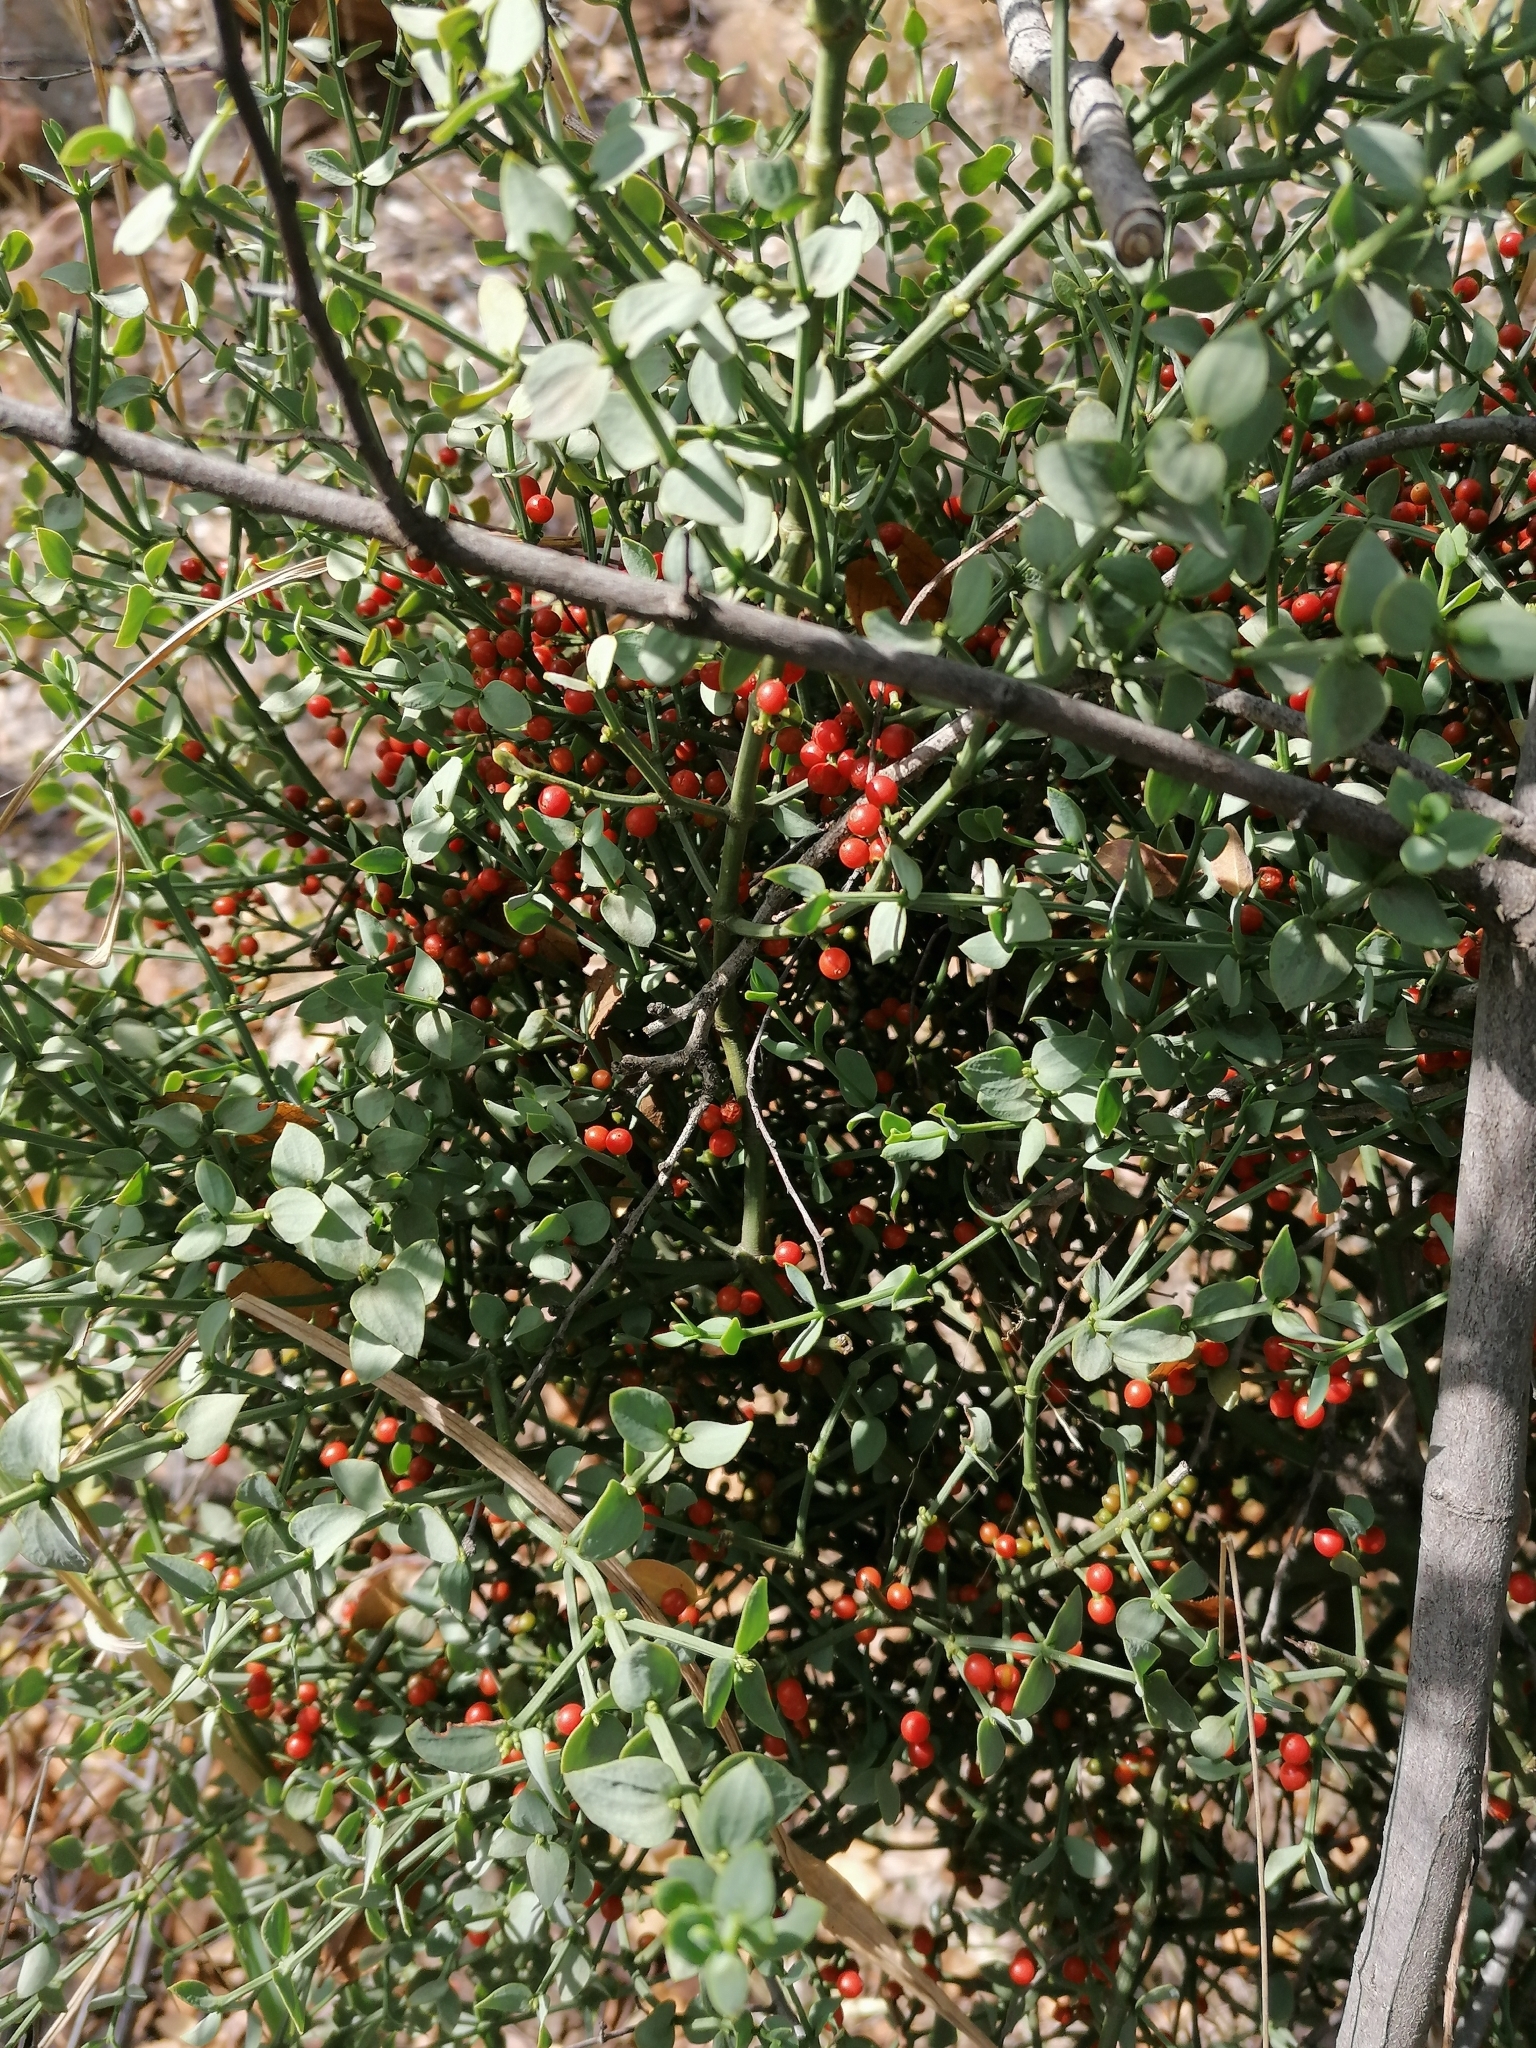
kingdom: Plantae
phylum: Tracheophyta
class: Magnoliopsida
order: Santalales
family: Viscaceae
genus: Viscum
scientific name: Viscum rotundifolium
